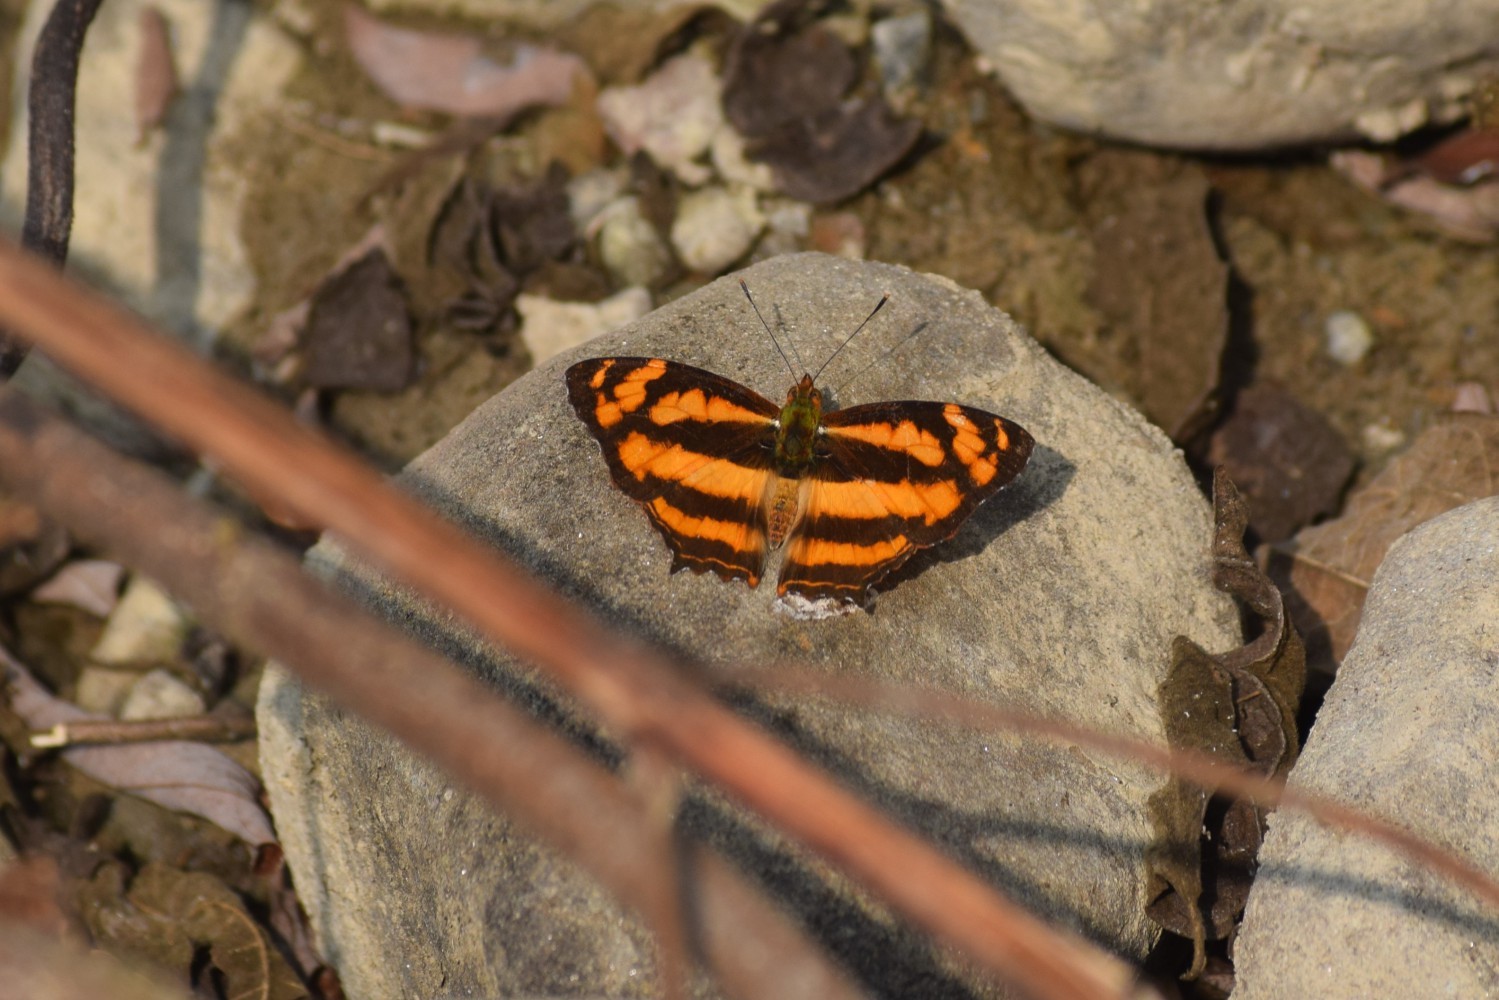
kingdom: Animalia
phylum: Arthropoda
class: Insecta
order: Lepidoptera
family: Nymphalidae
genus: Symbrenthia
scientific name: Symbrenthia hypselis
